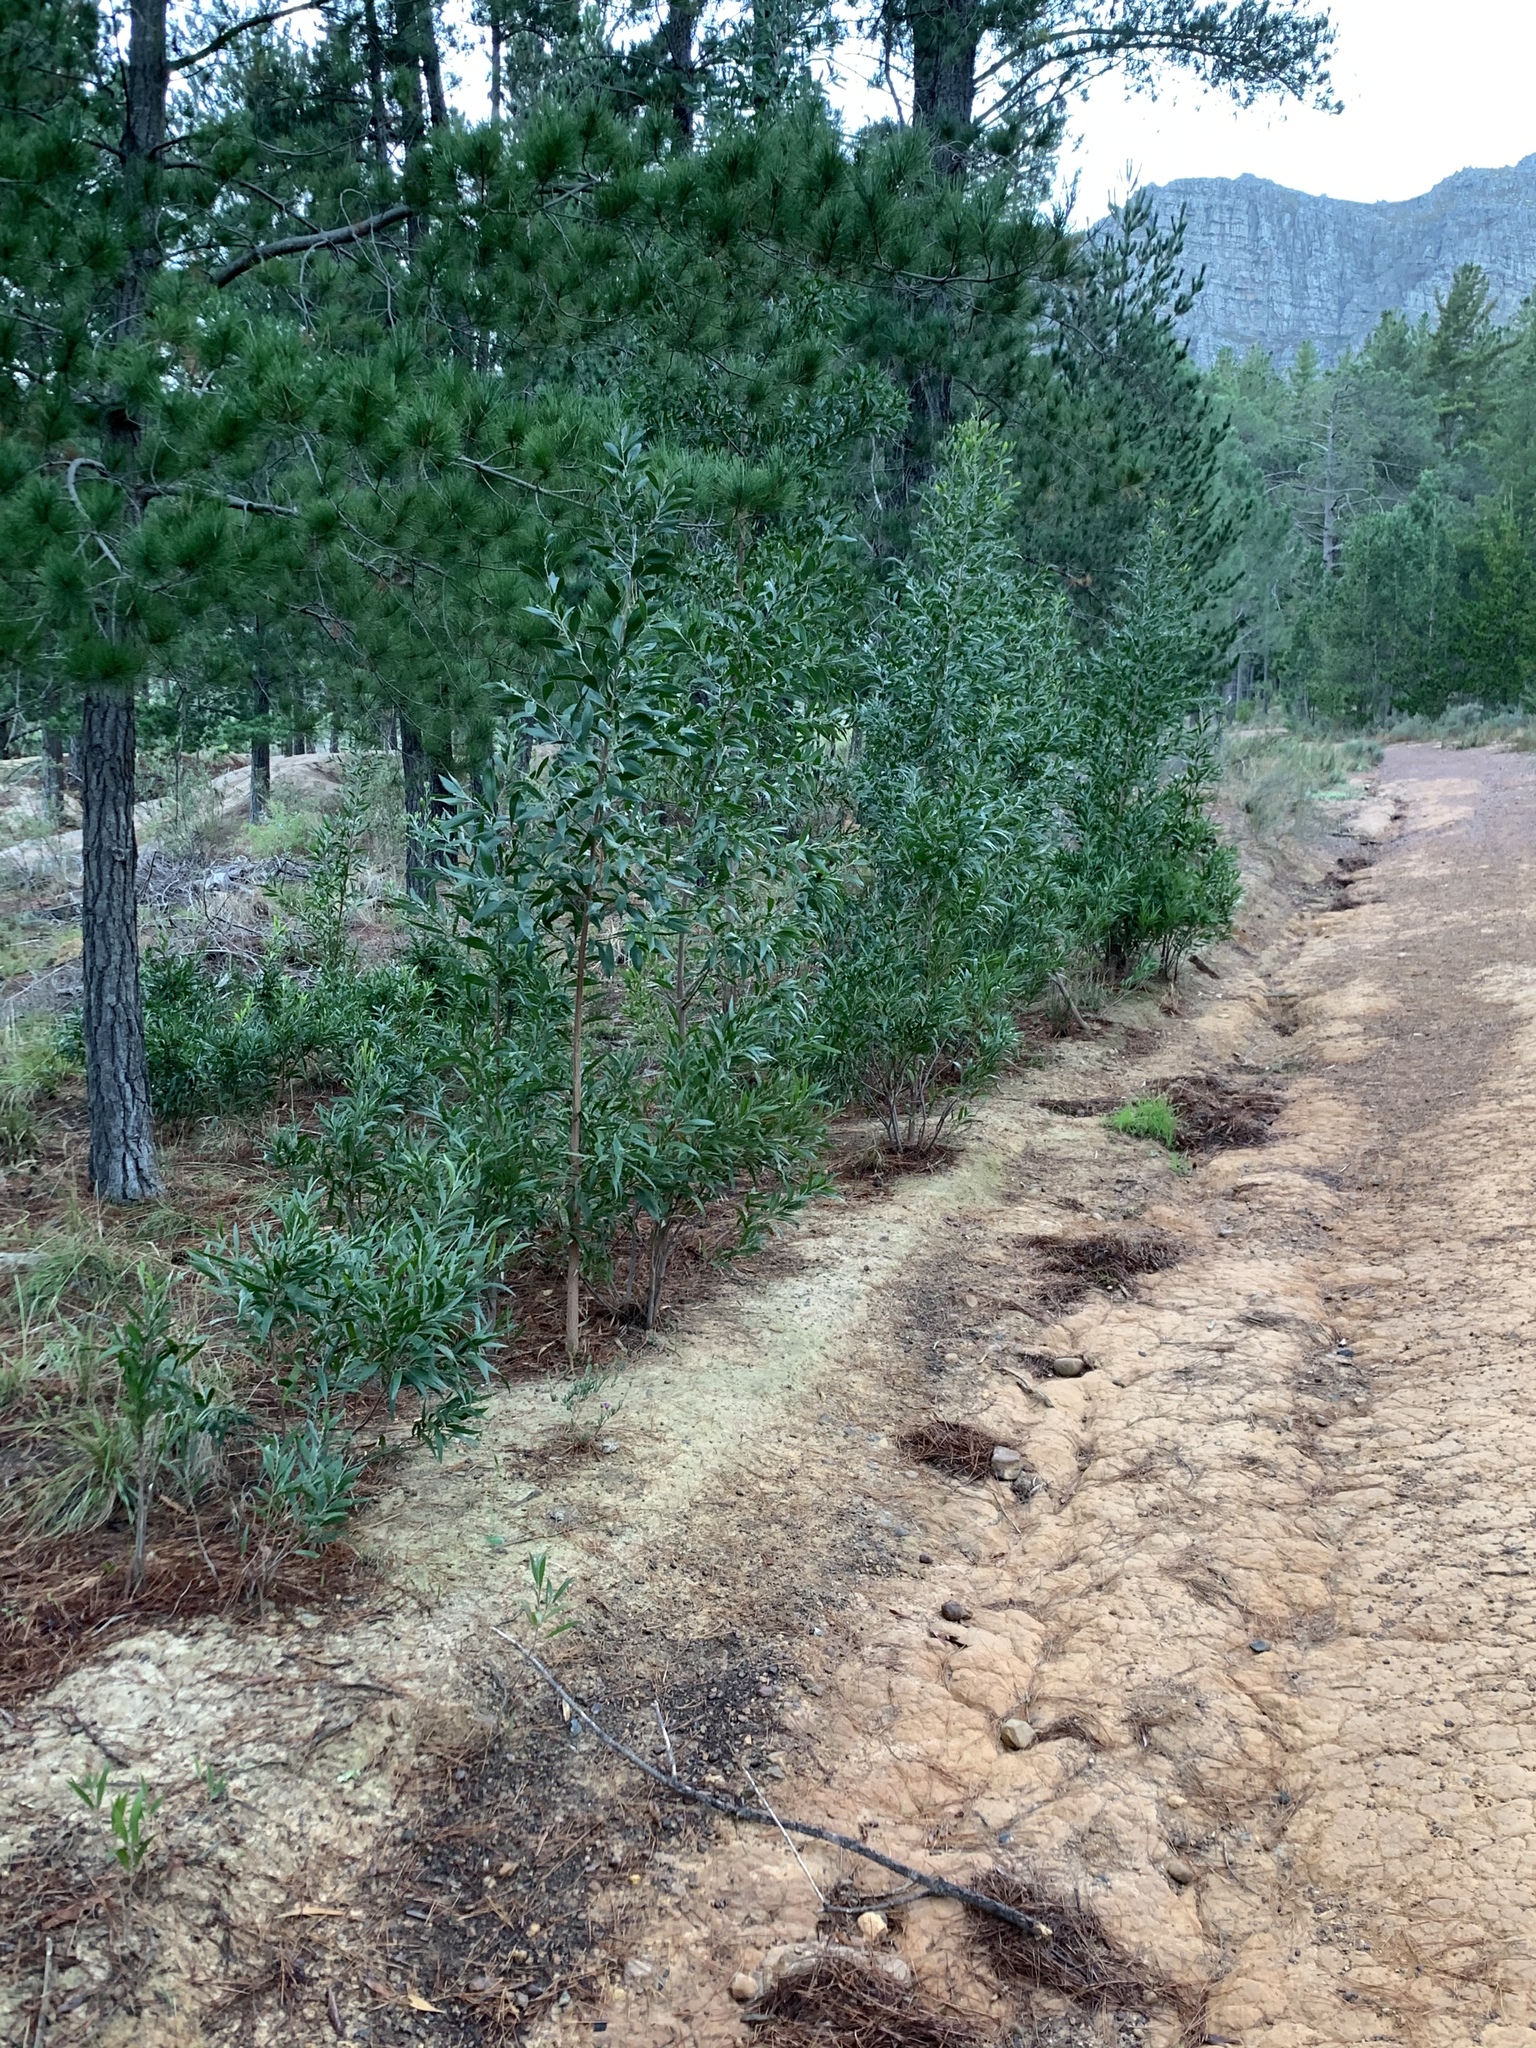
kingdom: Plantae
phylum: Tracheophyta
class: Magnoliopsida
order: Fabales
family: Fabaceae
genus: Acacia
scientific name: Acacia melanoxylon
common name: Blackwood
